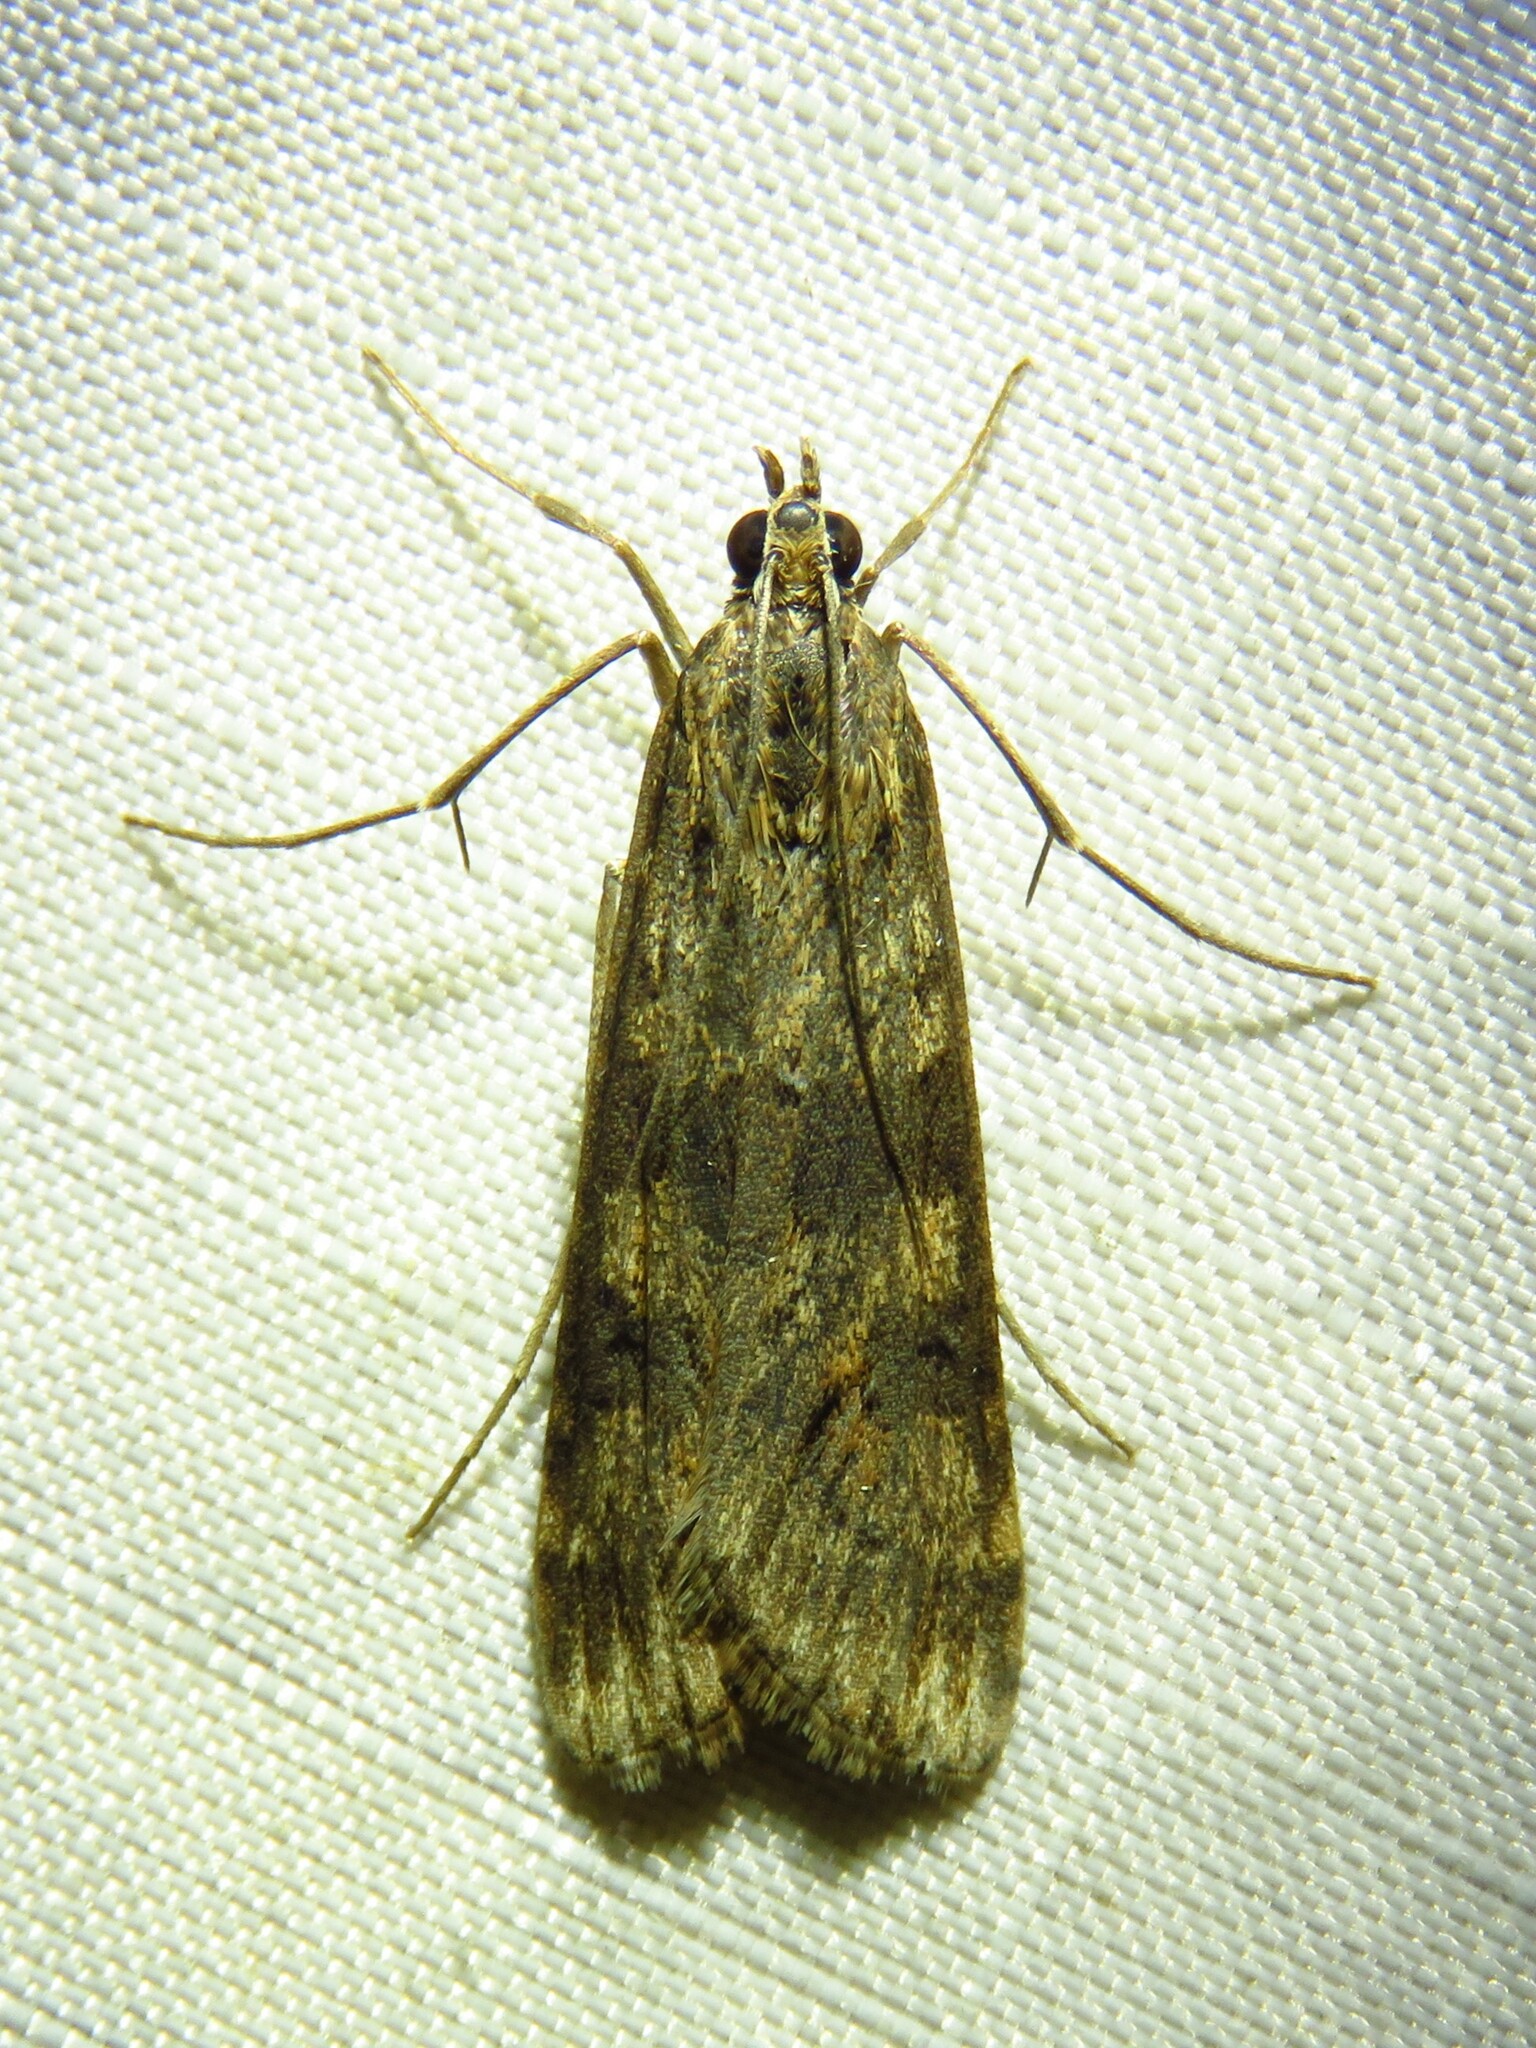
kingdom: Animalia
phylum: Arthropoda
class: Insecta
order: Lepidoptera
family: Crambidae
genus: Nomophila
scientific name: Nomophila nearctica
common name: American rush veneer
